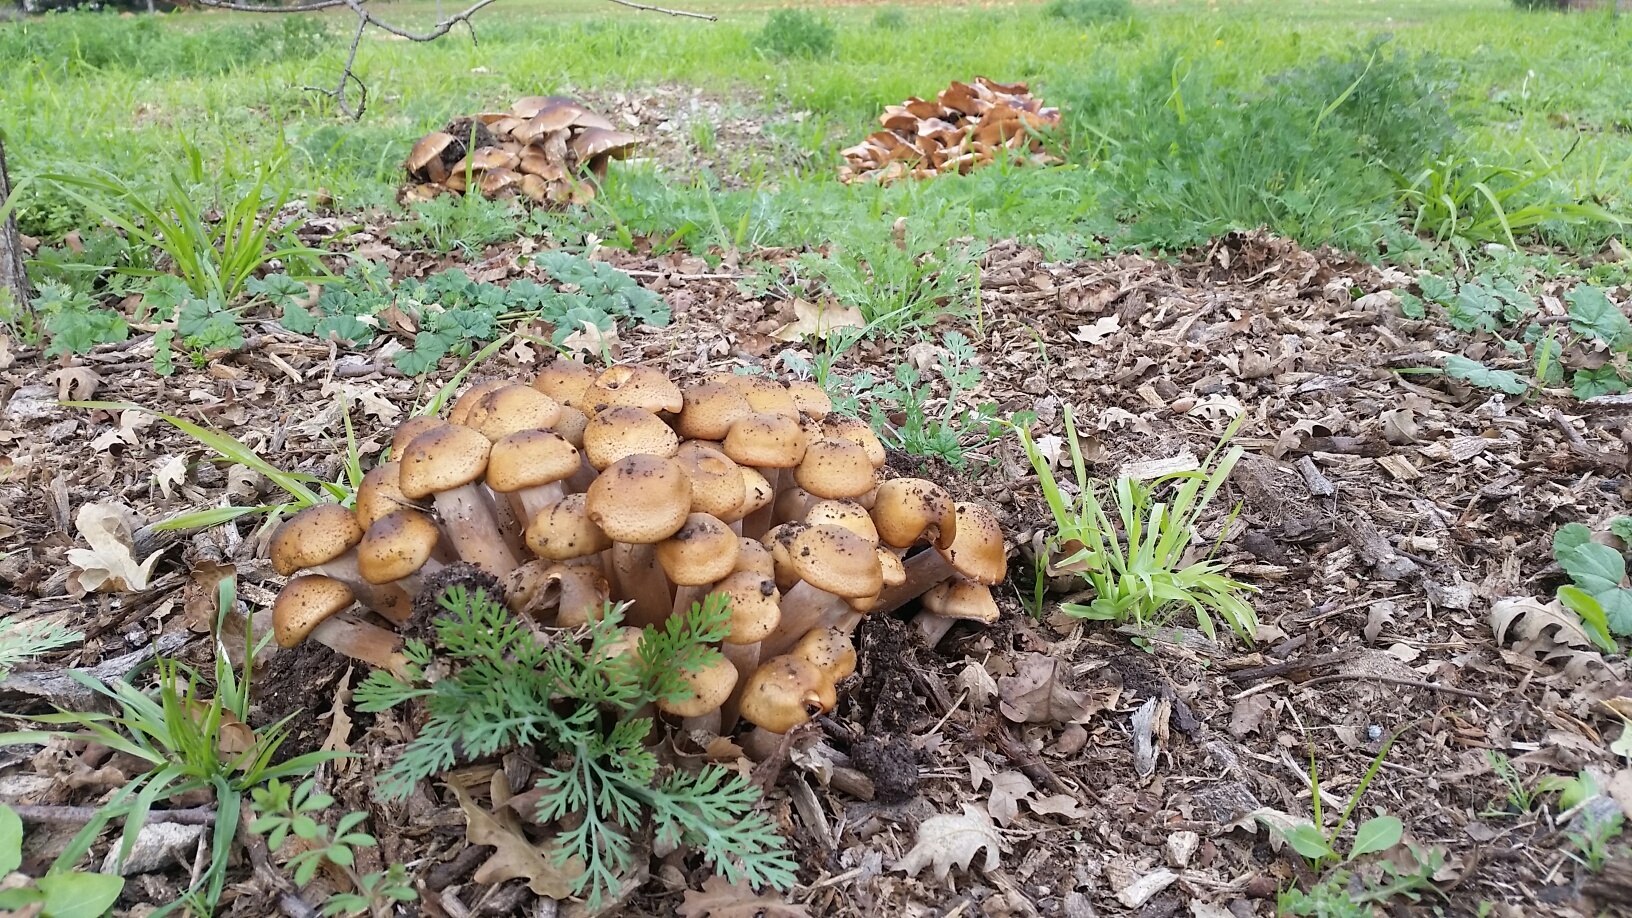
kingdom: Fungi
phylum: Basidiomycota
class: Agaricomycetes
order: Agaricales
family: Physalacriaceae
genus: Armillaria
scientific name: Armillaria mellea
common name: Honey fungus
